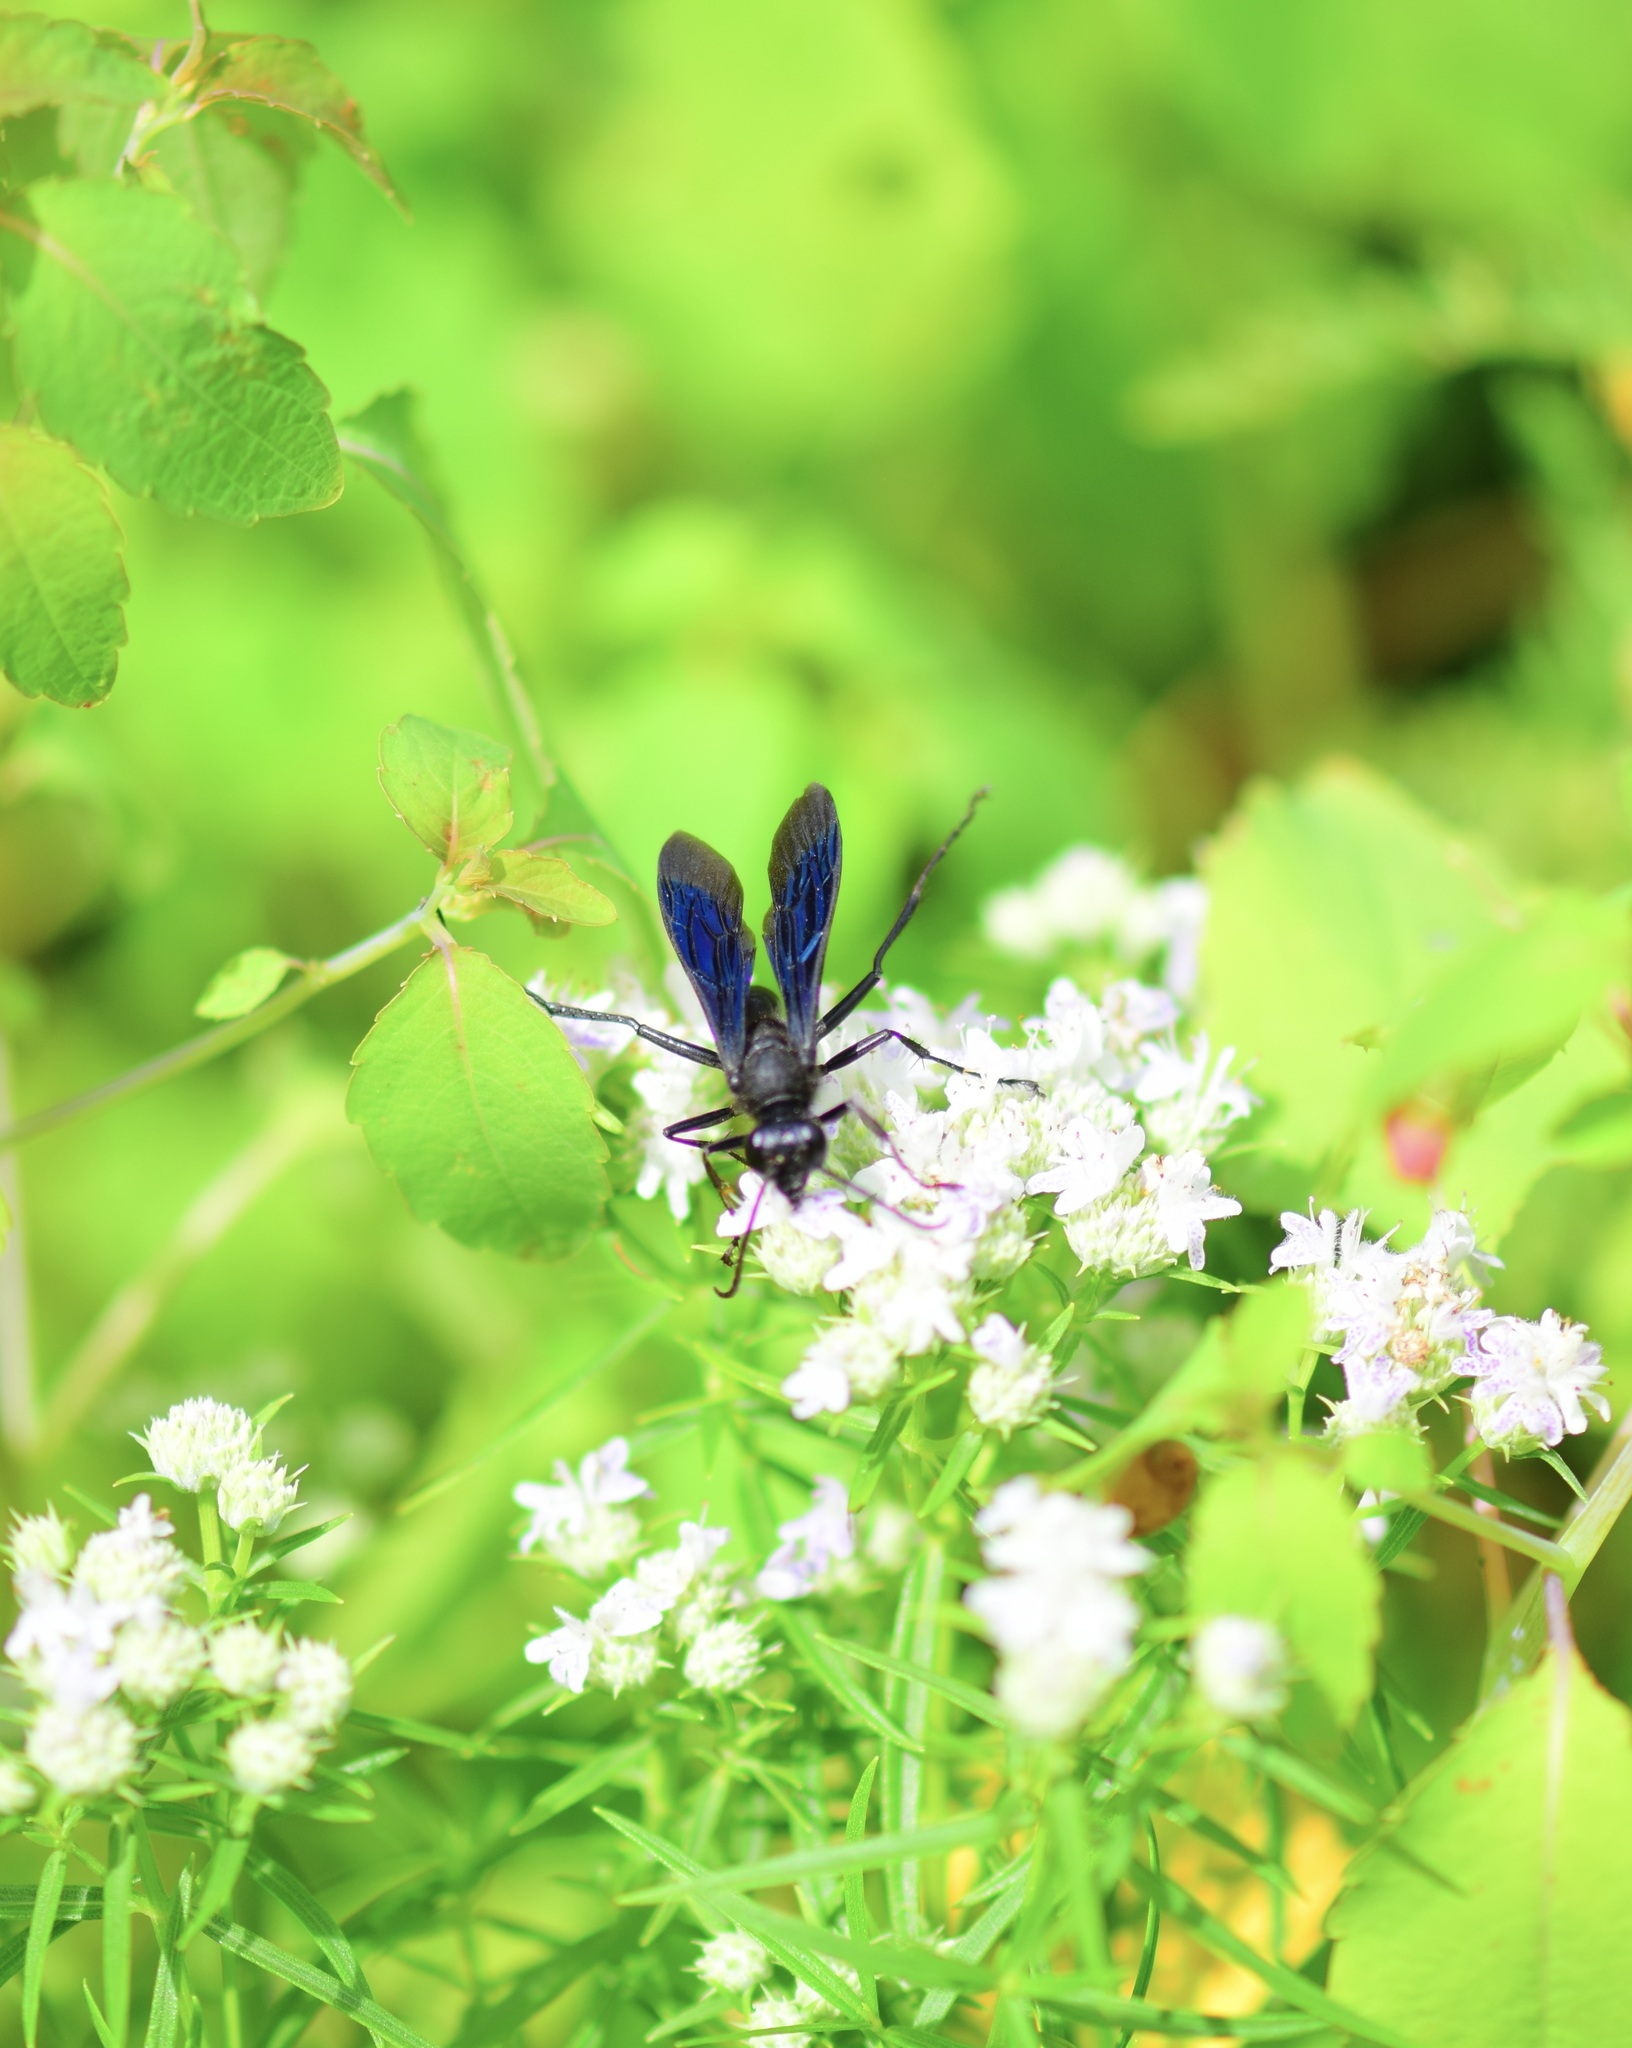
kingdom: Animalia
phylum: Arthropoda
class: Insecta
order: Hymenoptera
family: Sphecidae
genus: Sphex
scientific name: Sphex pensylvanicus
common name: Great black digger wasp
